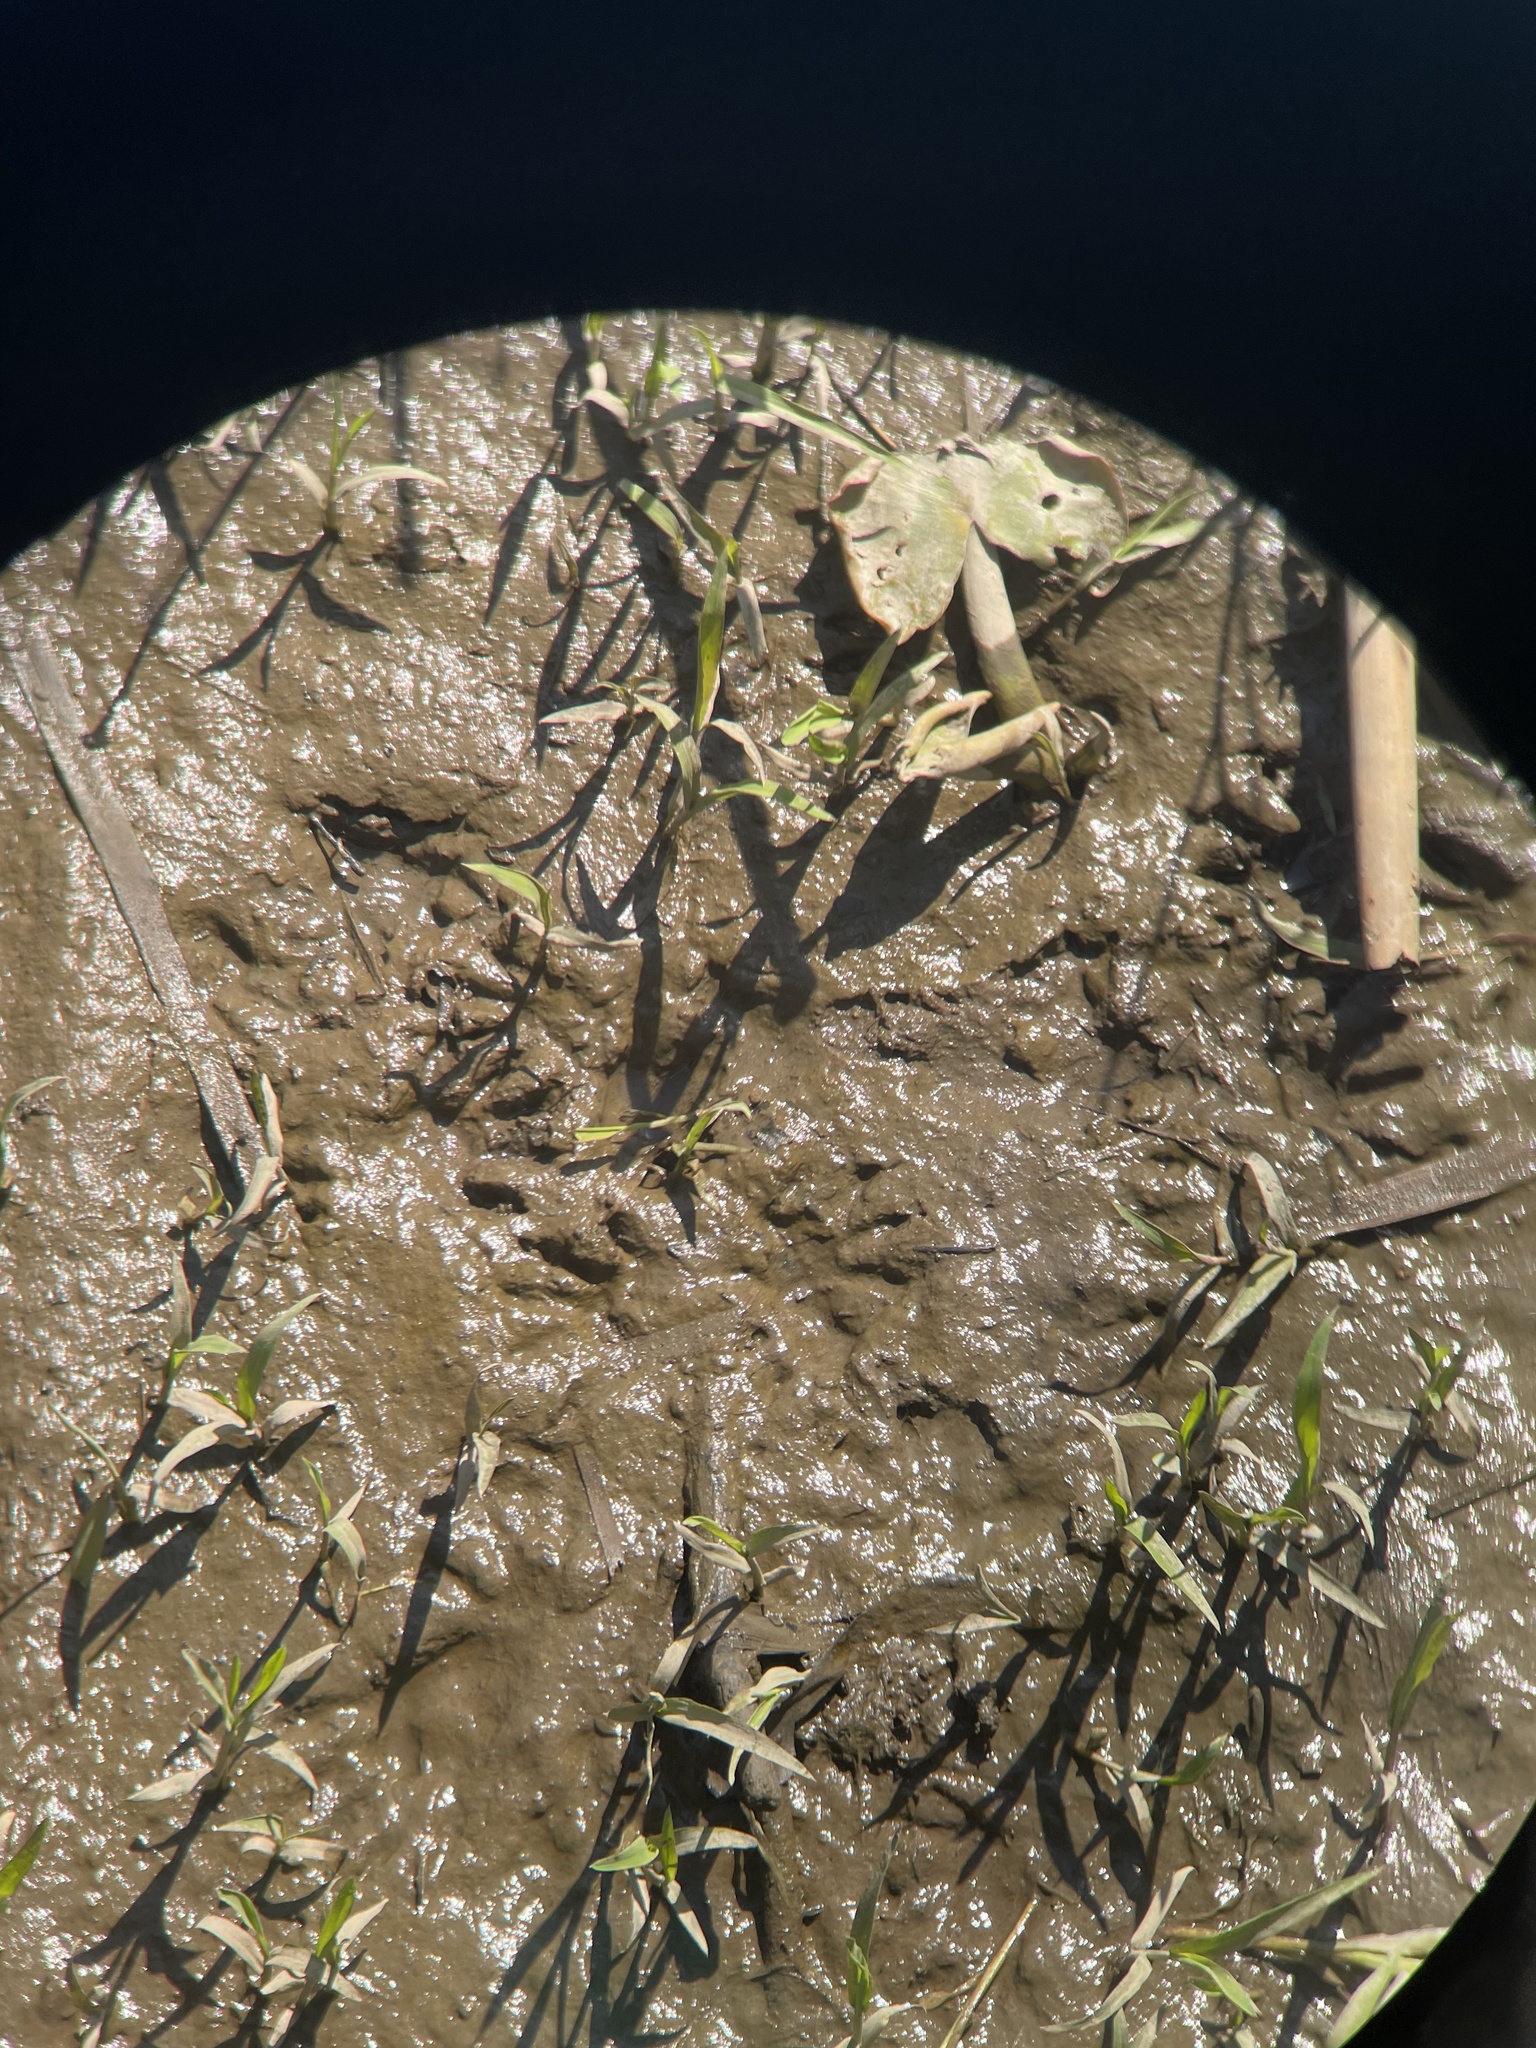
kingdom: Animalia
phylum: Chordata
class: Mammalia
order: Carnivora
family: Procyonidae
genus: Procyon
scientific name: Procyon lotor
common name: Raccoon
